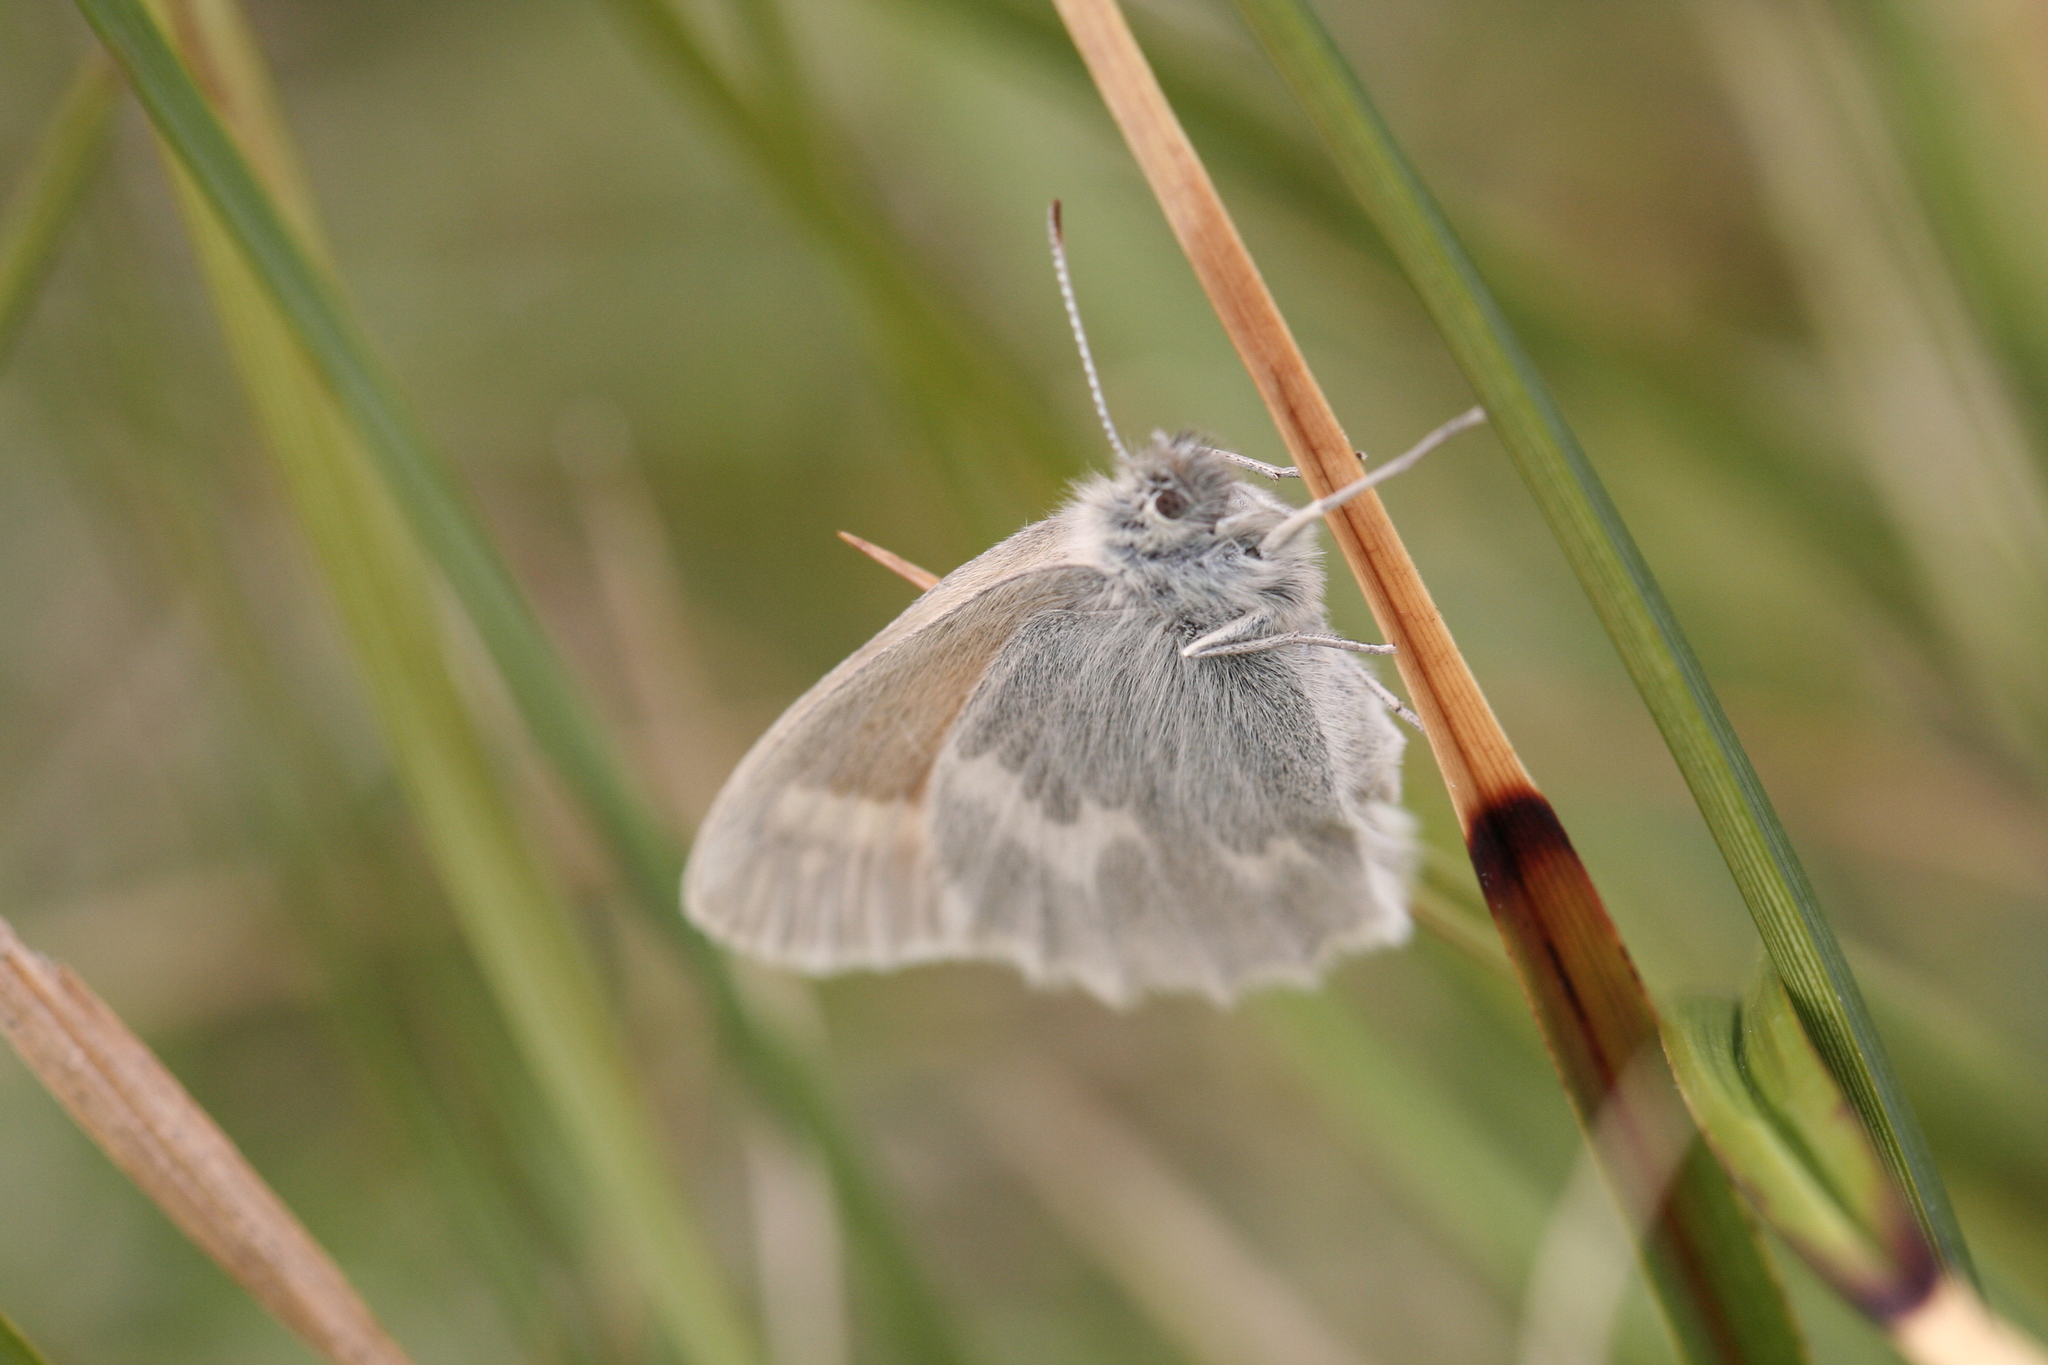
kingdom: Animalia
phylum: Arthropoda
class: Insecta
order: Lepidoptera
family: Nymphalidae
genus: Coenonympha
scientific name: Coenonympha tullia
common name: Large heath
